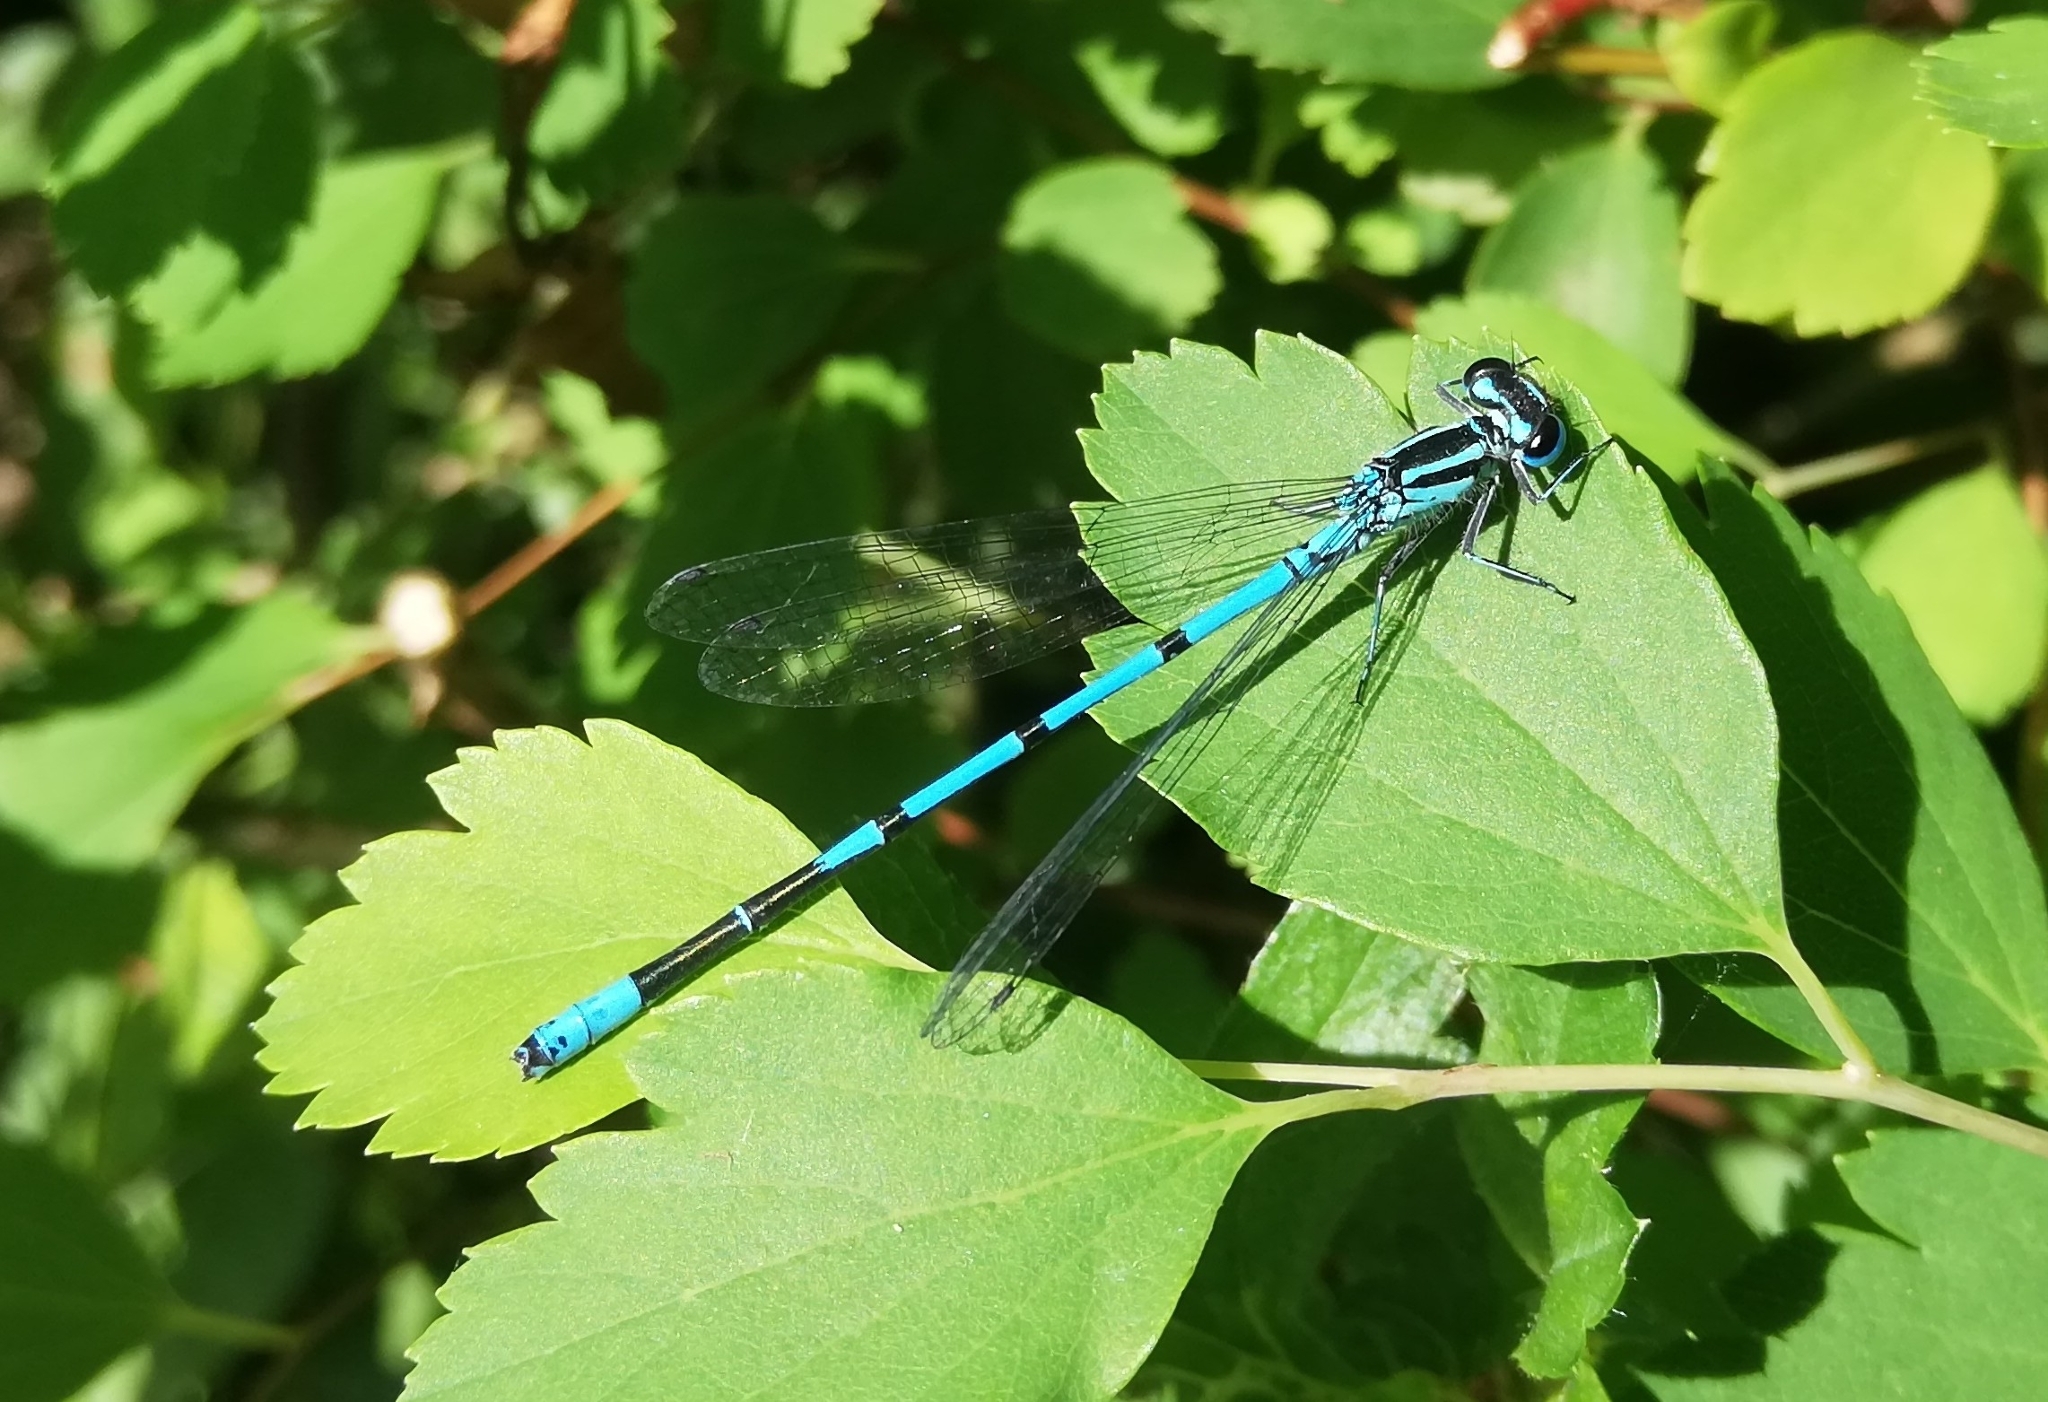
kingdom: Animalia
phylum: Arthropoda
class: Insecta
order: Odonata
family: Coenagrionidae
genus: Coenagrion
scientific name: Coenagrion puella
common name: Azure damselfly
